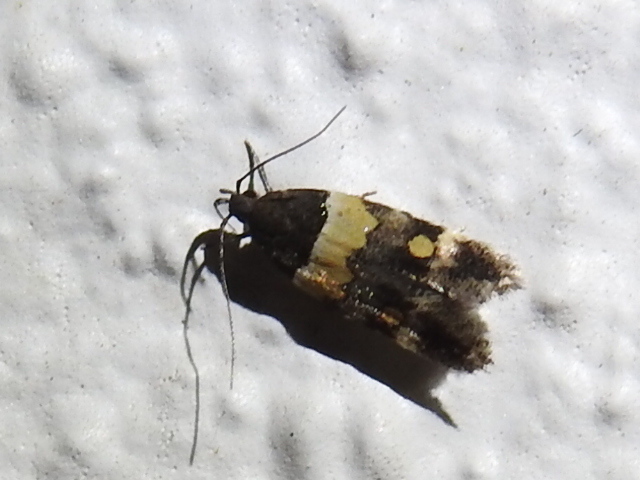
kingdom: Animalia
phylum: Arthropoda
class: Insecta
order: Lepidoptera
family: Momphidae
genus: Triclonella
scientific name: Triclonella determinatella
